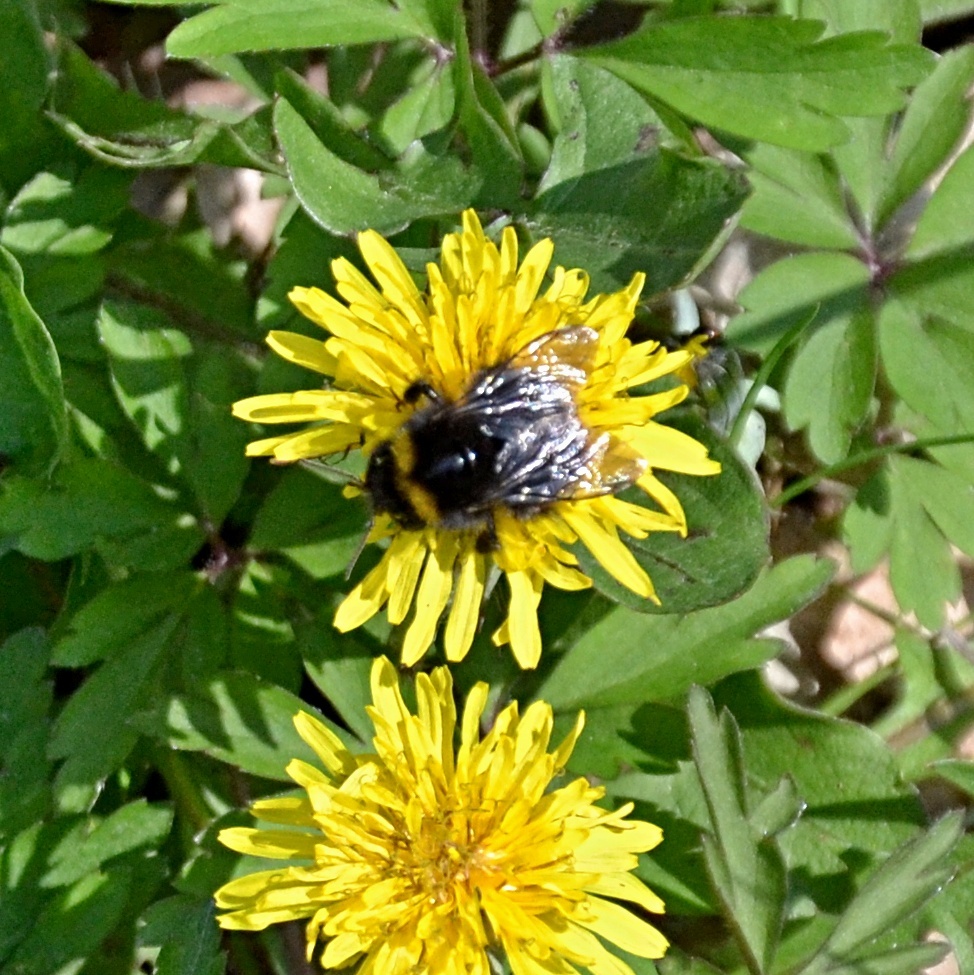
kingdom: Animalia
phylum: Arthropoda
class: Insecta
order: Hymenoptera
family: Apidae
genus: Bombus
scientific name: Bombus pratorum
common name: Early humble-bee
